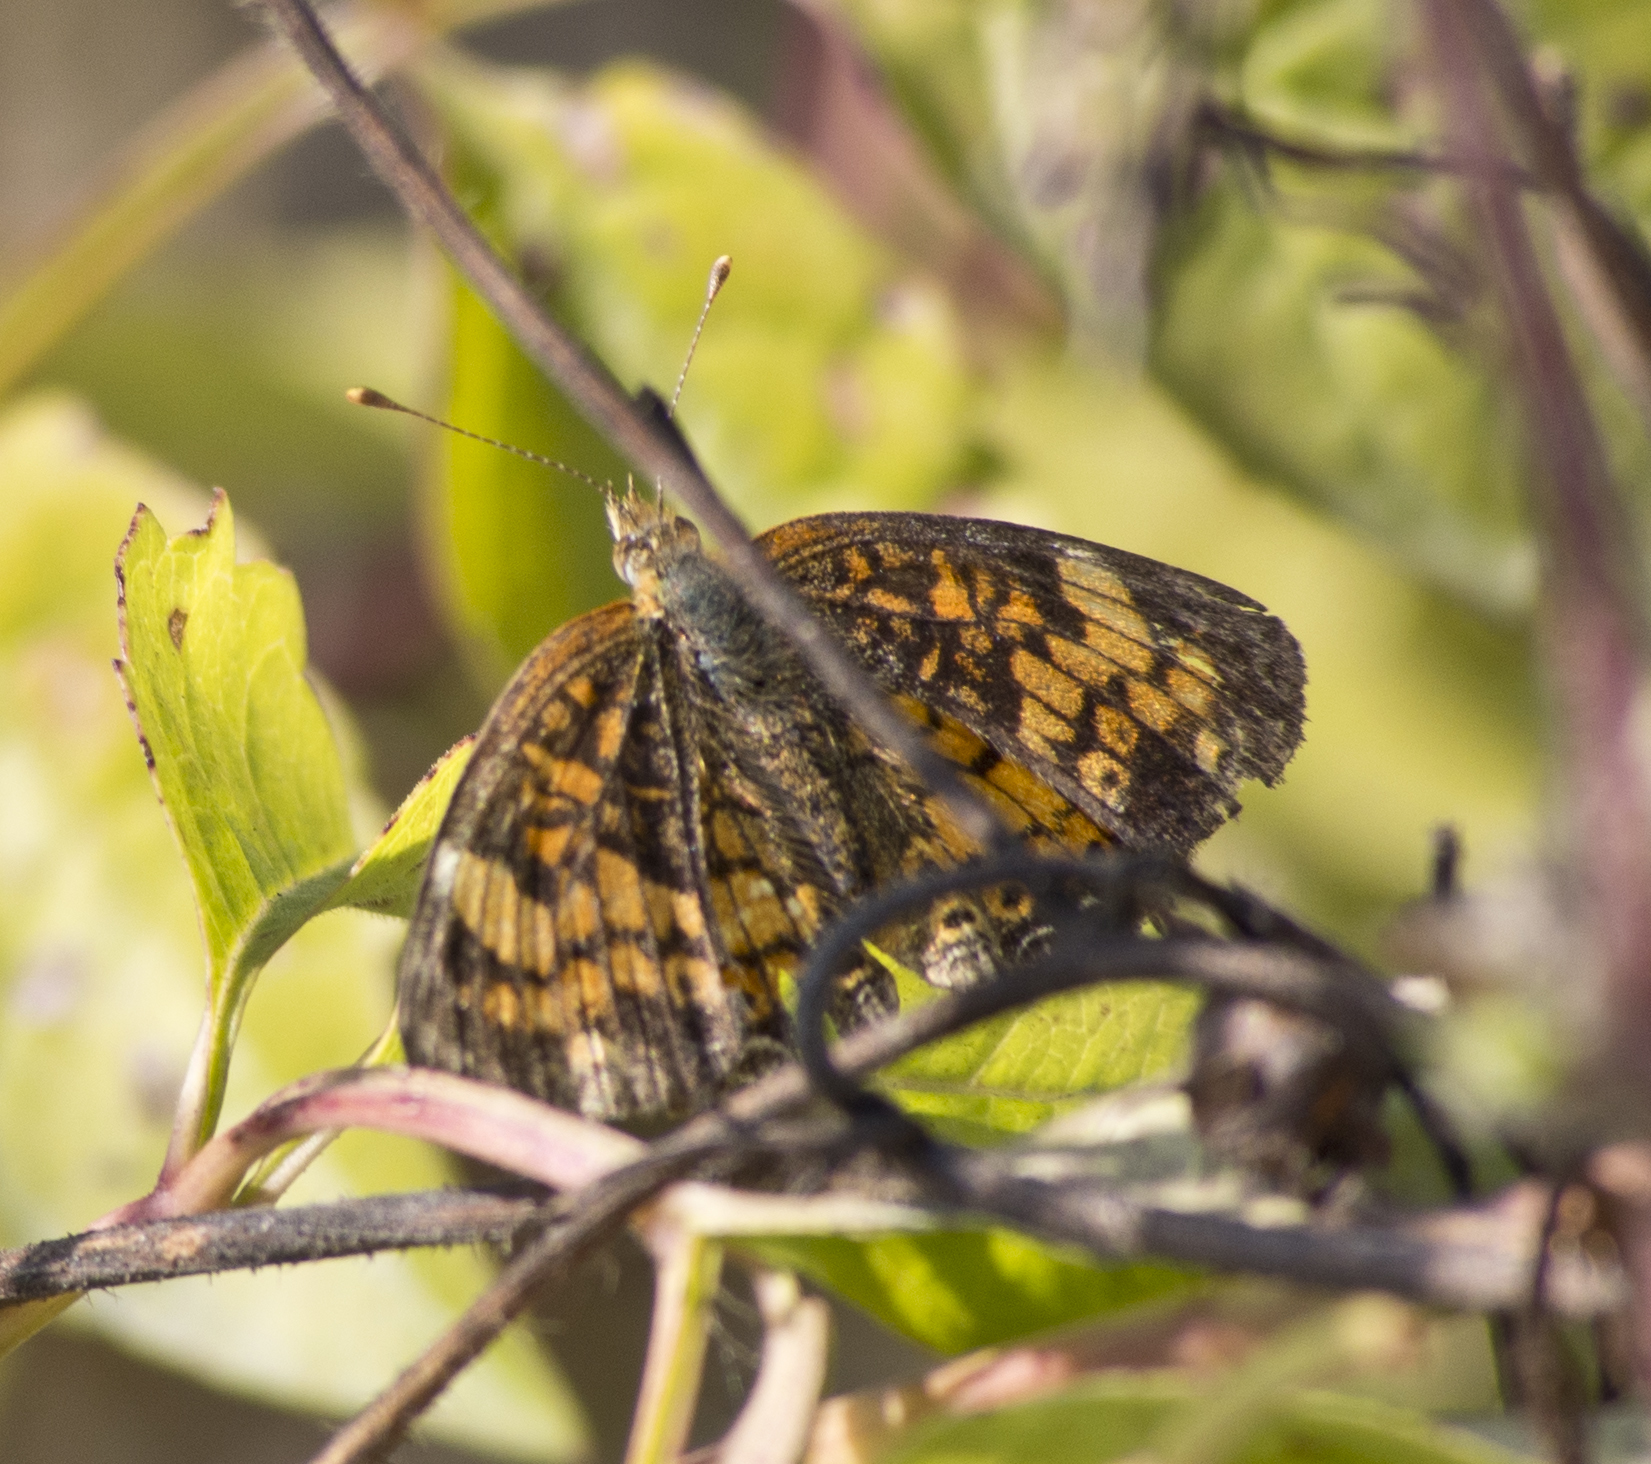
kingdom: Animalia
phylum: Arthropoda
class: Insecta
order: Lepidoptera
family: Nymphalidae
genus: Phyciodes
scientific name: Phyciodes tharos
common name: Pearl crescent
